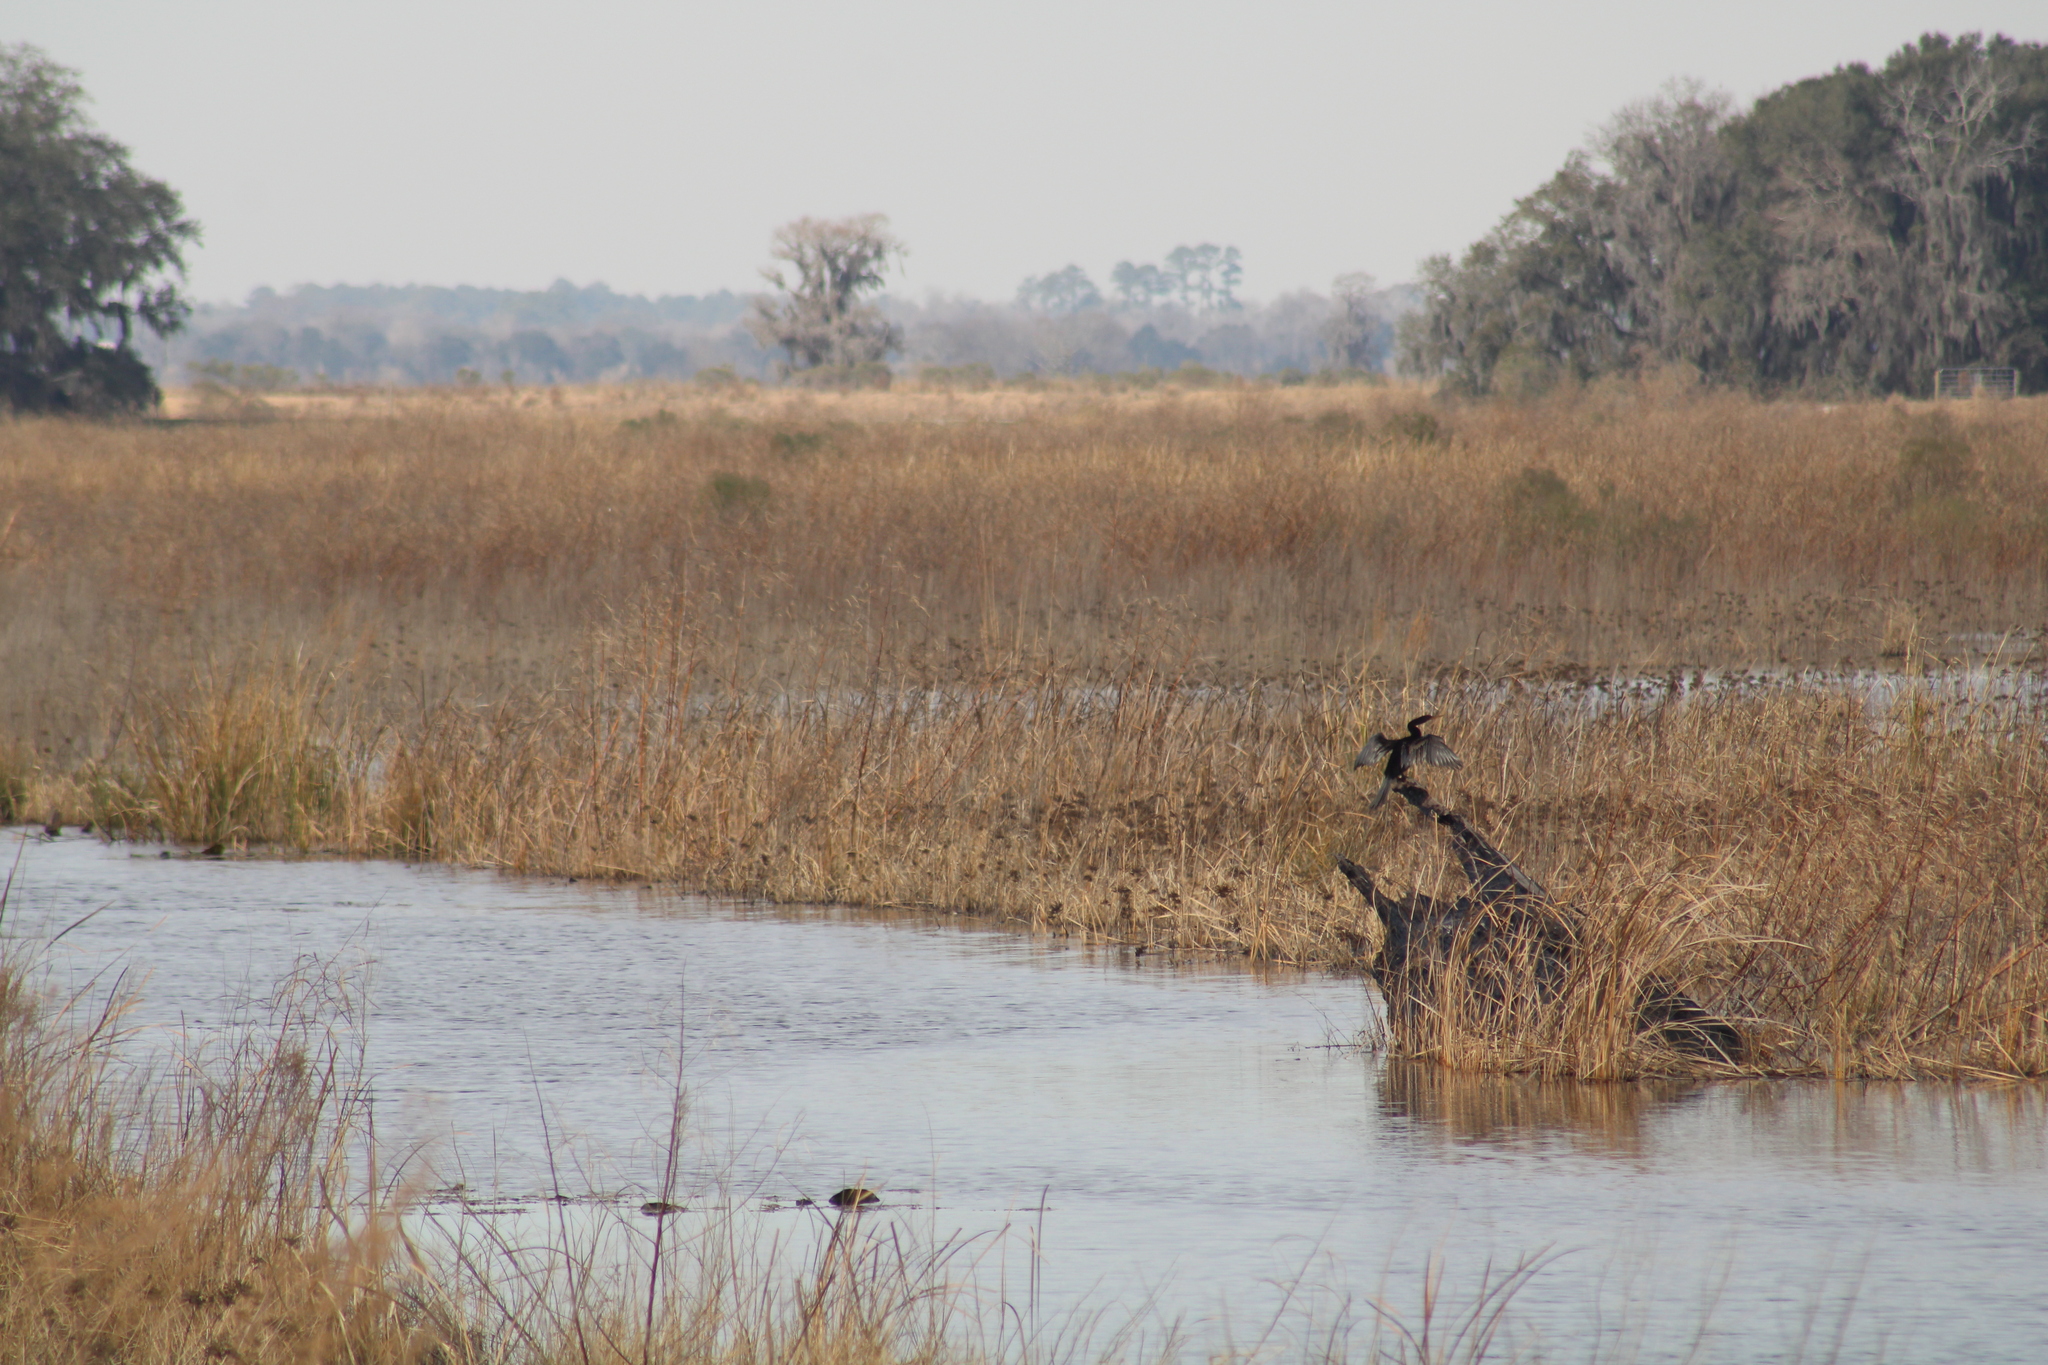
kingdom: Animalia
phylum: Chordata
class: Aves
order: Suliformes
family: Anhingidae
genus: Anhinga
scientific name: Anhinga anhinga
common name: Anhinga
